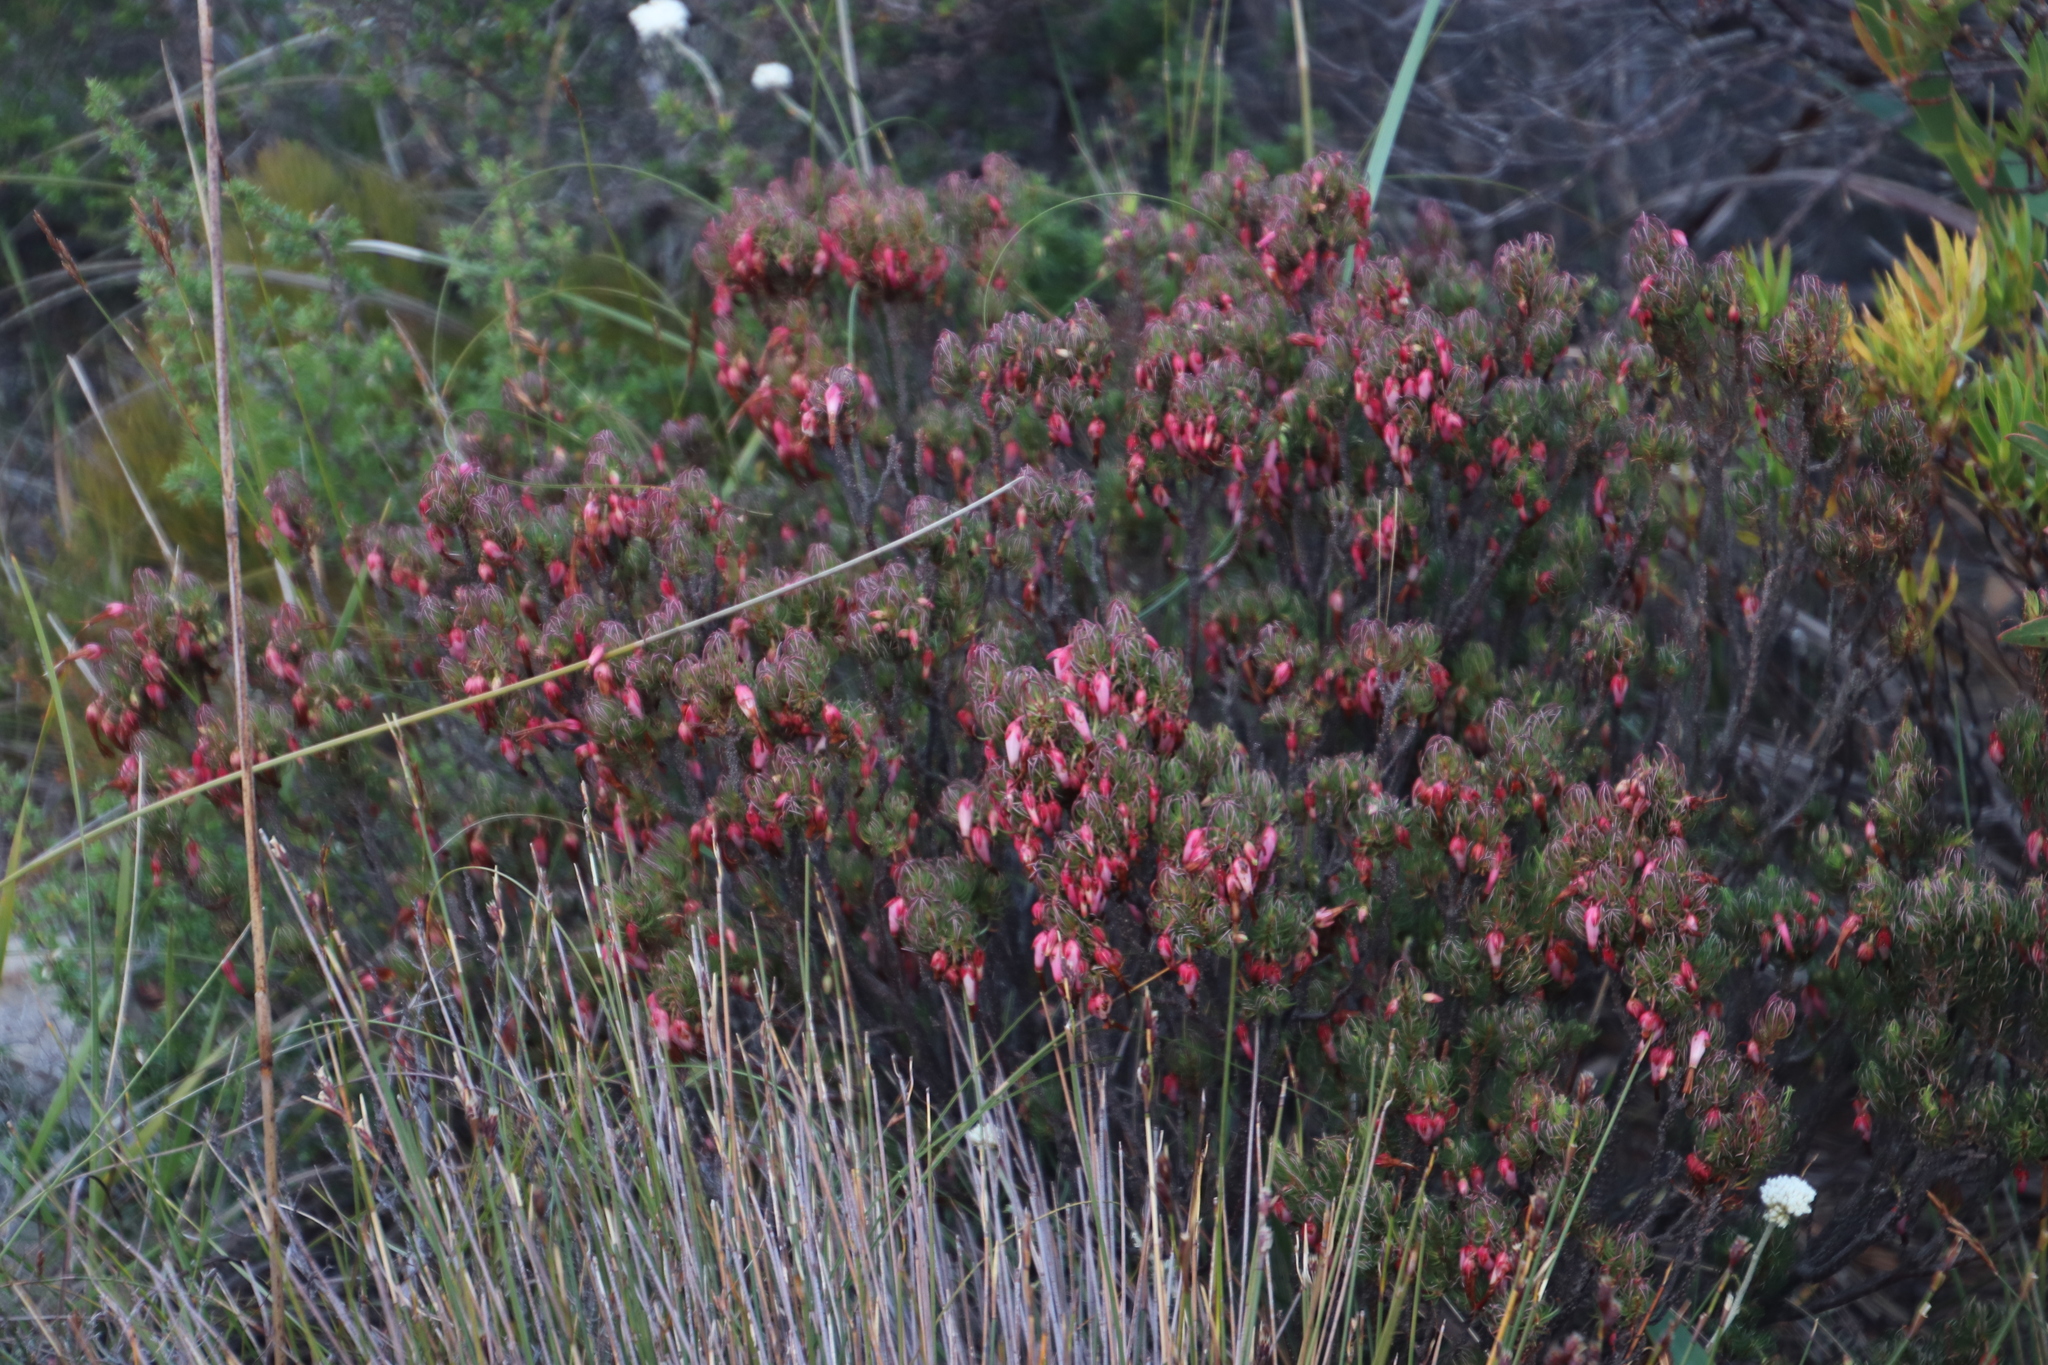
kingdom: Plantae
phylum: Tracheophyta
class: Magnoliopsida
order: Ericales
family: Ericaceae
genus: Erica
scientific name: Erica plukenetii
